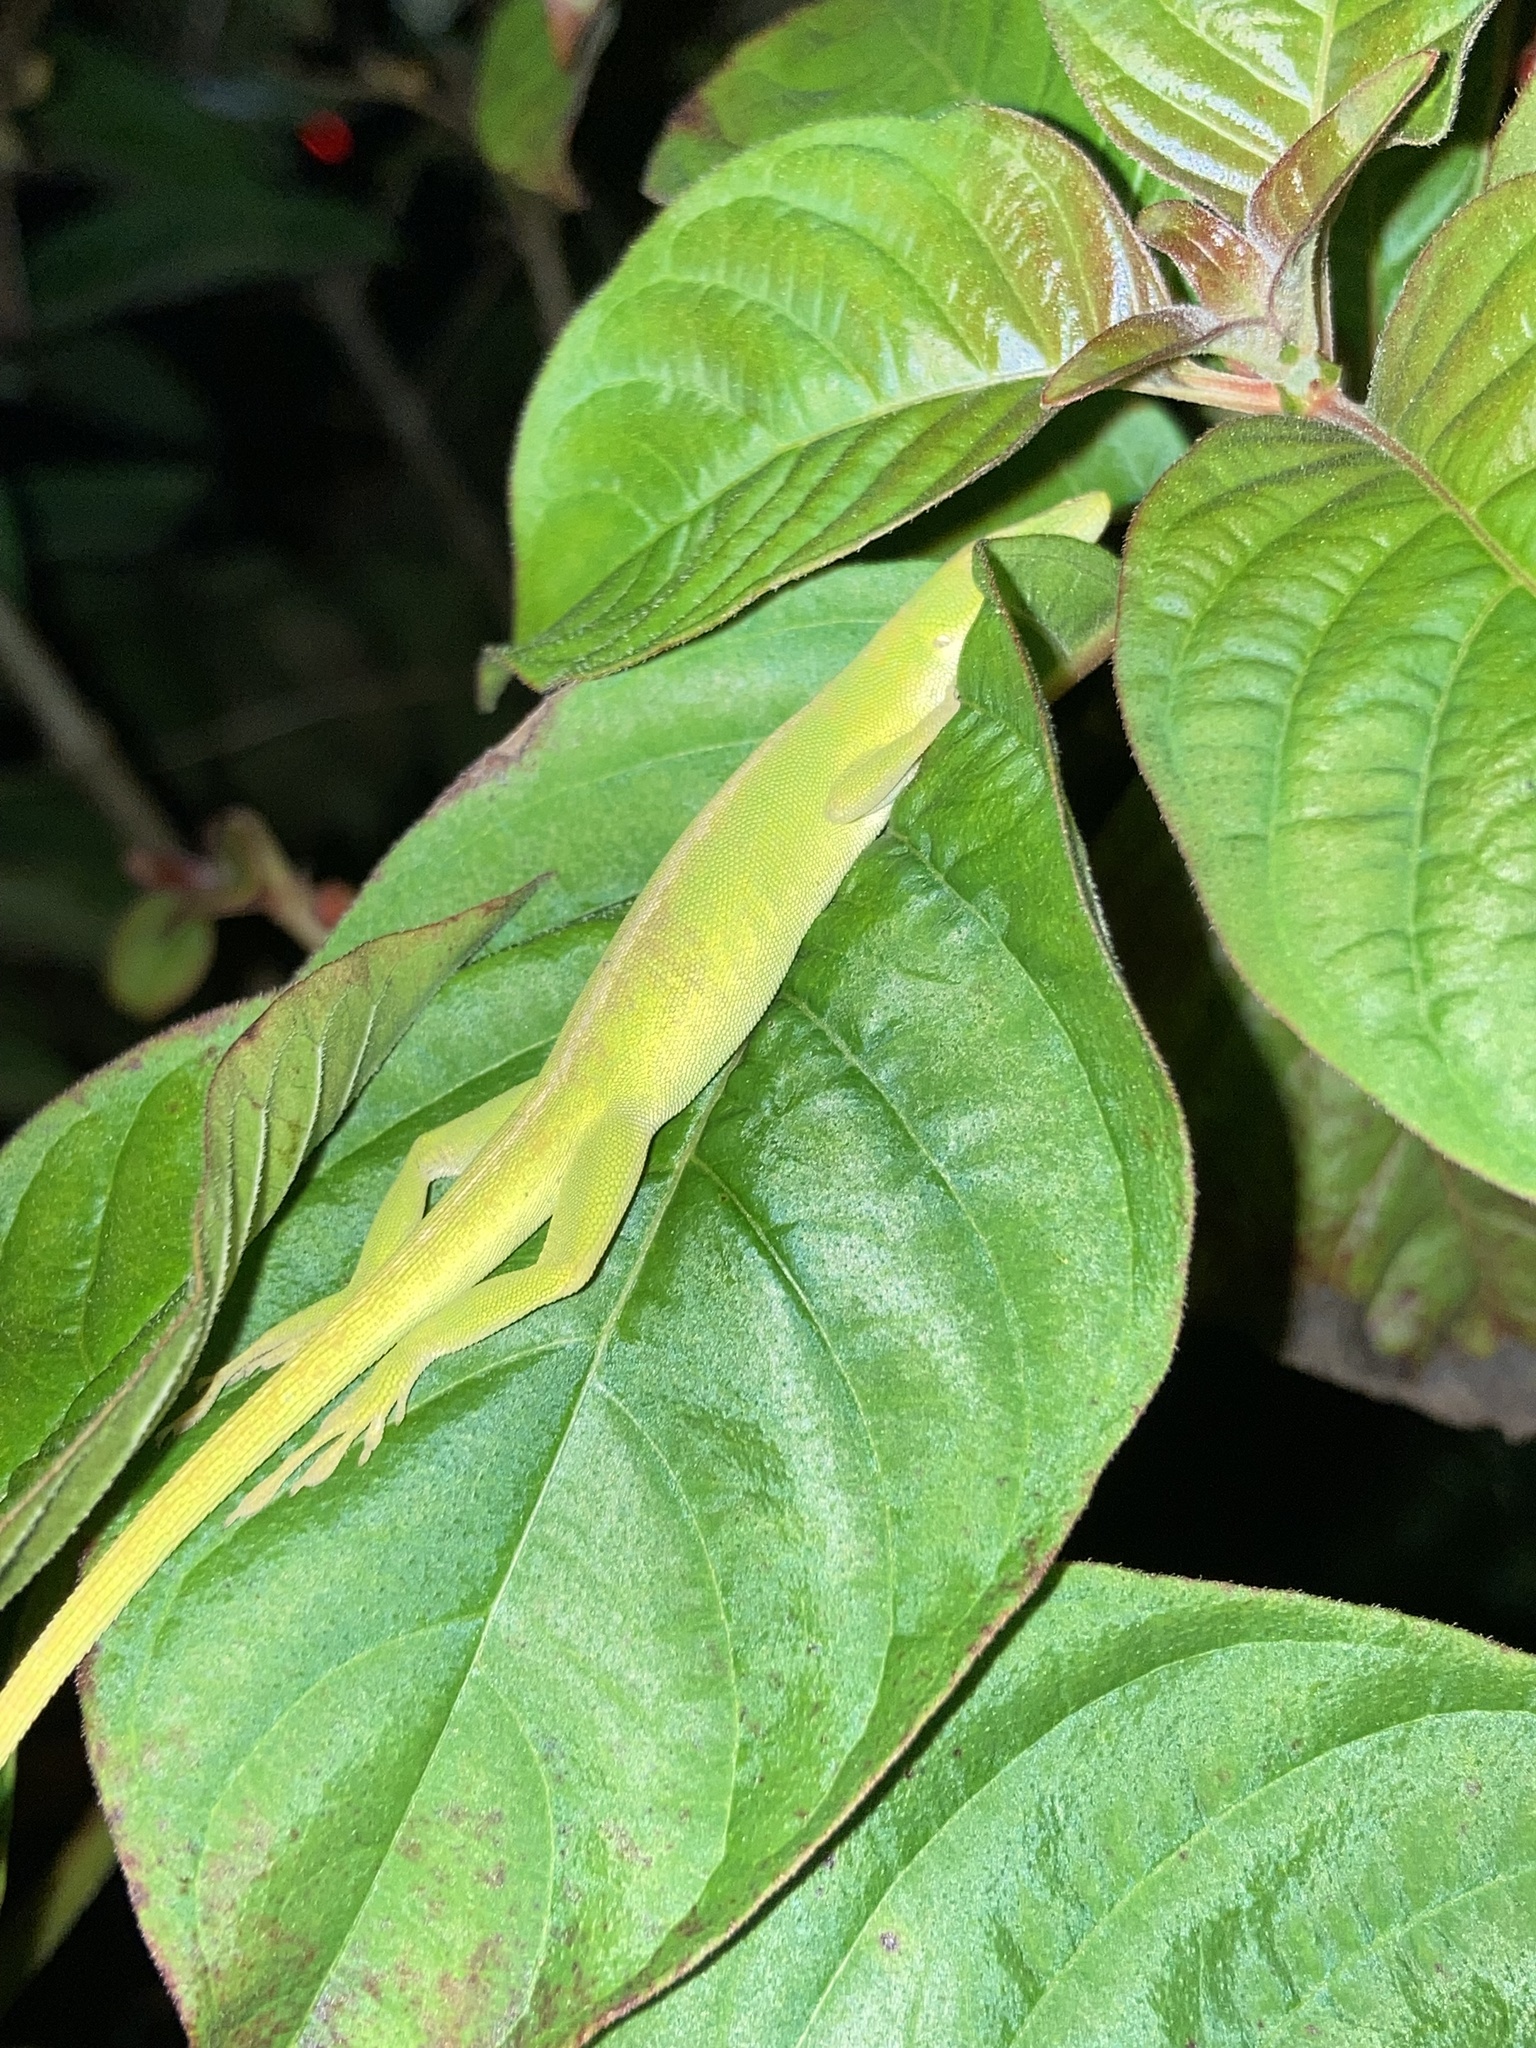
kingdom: Animalia
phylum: Chordata
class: Squamata
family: Dactyloidae
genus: Anolis
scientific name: Anolis carolinensis
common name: Green anole
